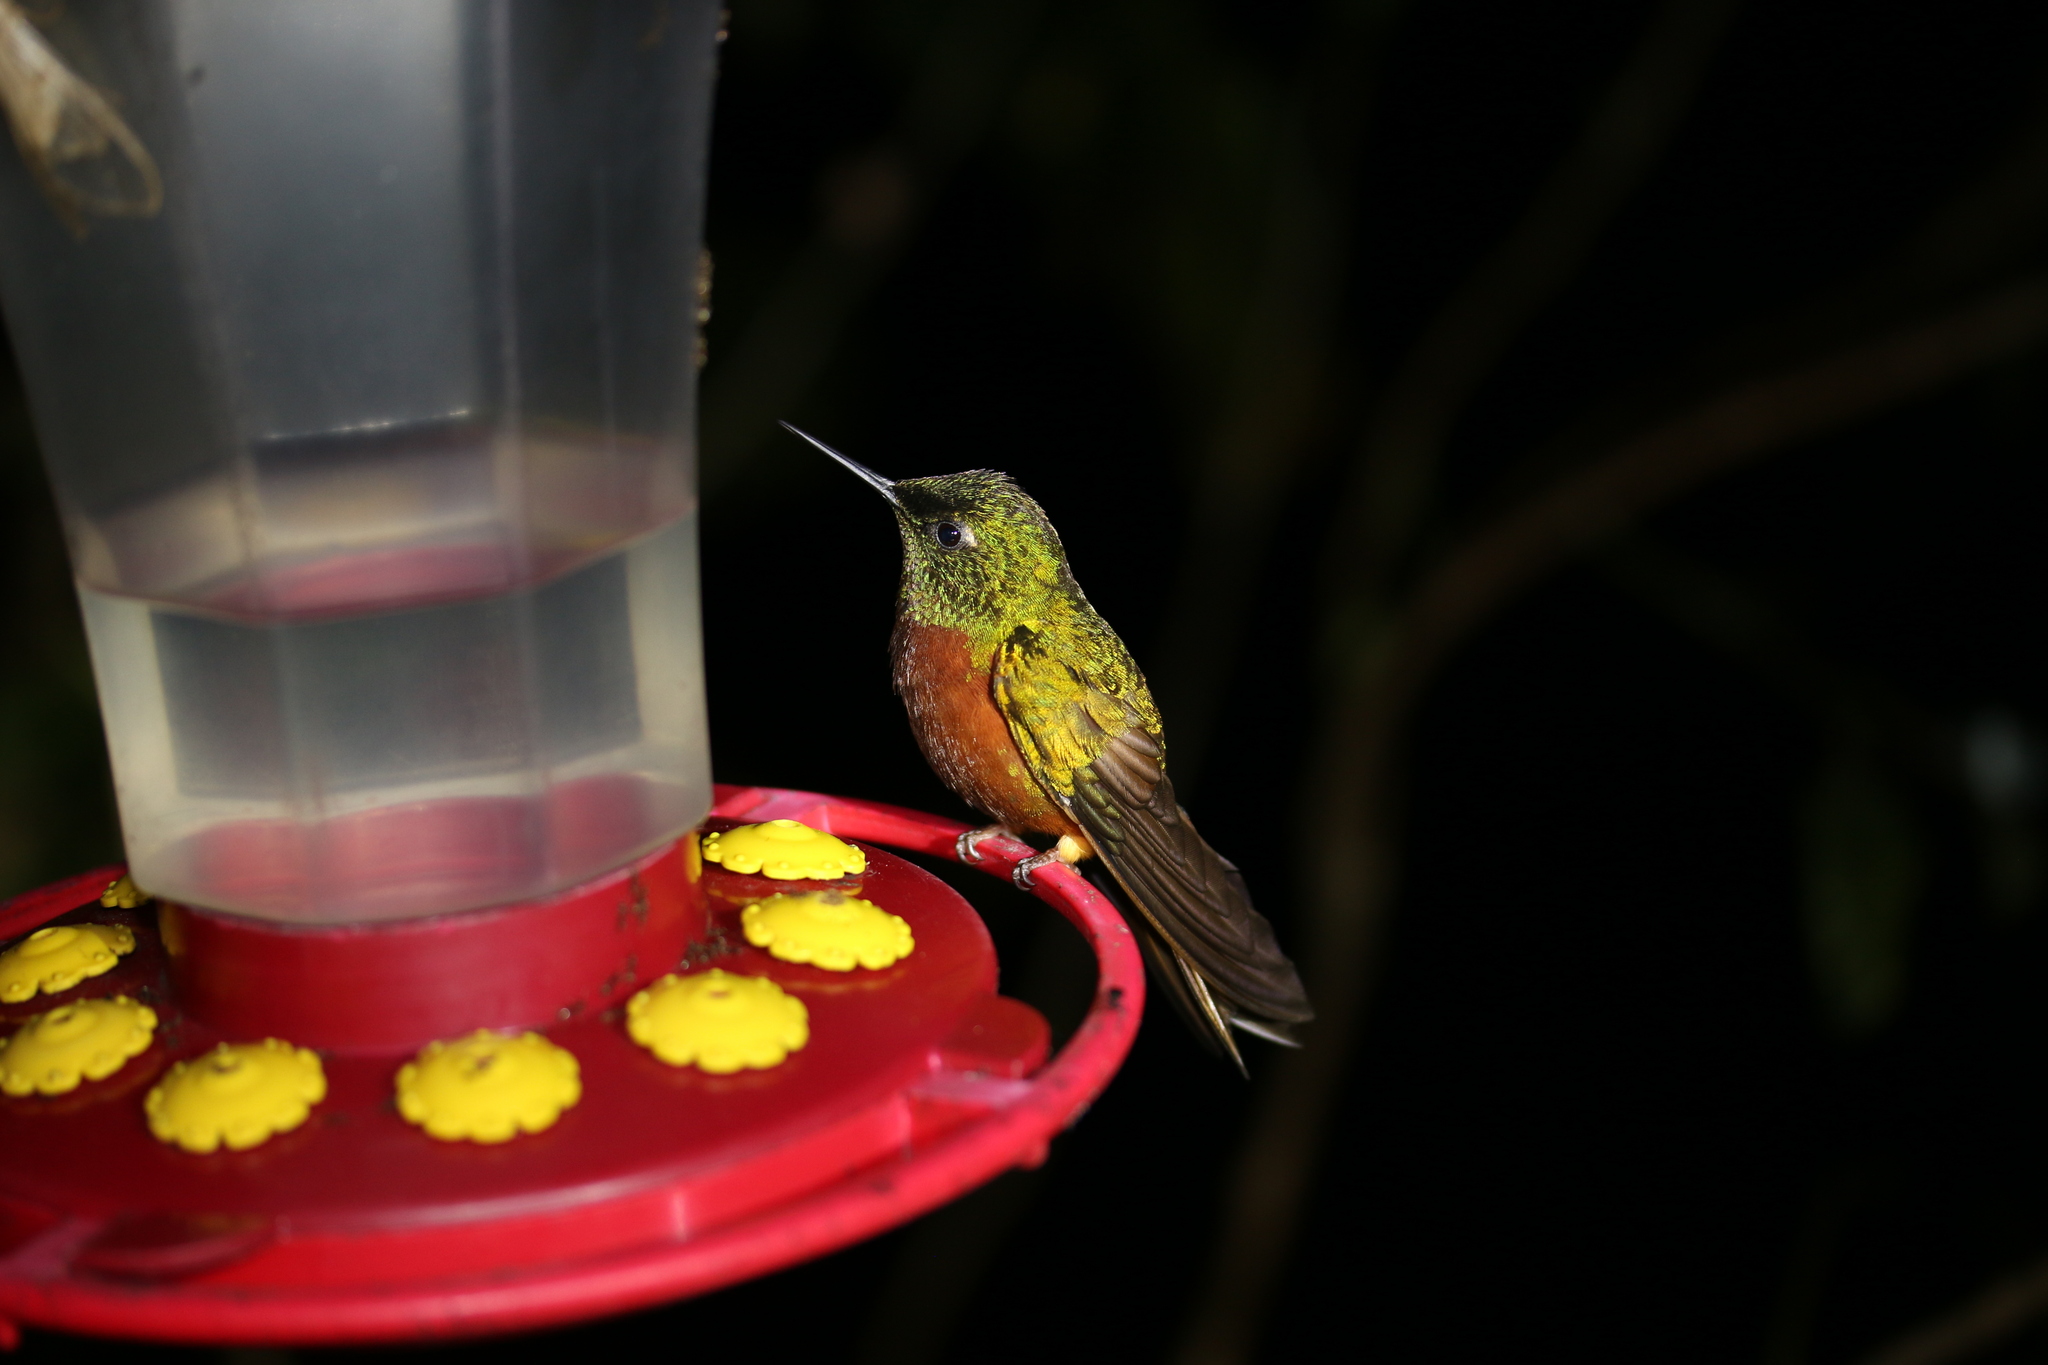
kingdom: Animalia
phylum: Chordata
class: Aves
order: Apodiformes
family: Trochilidae
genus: Boissonneaua
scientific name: Boissonneaua matthewsii
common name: Chestnut-breasted coronet
